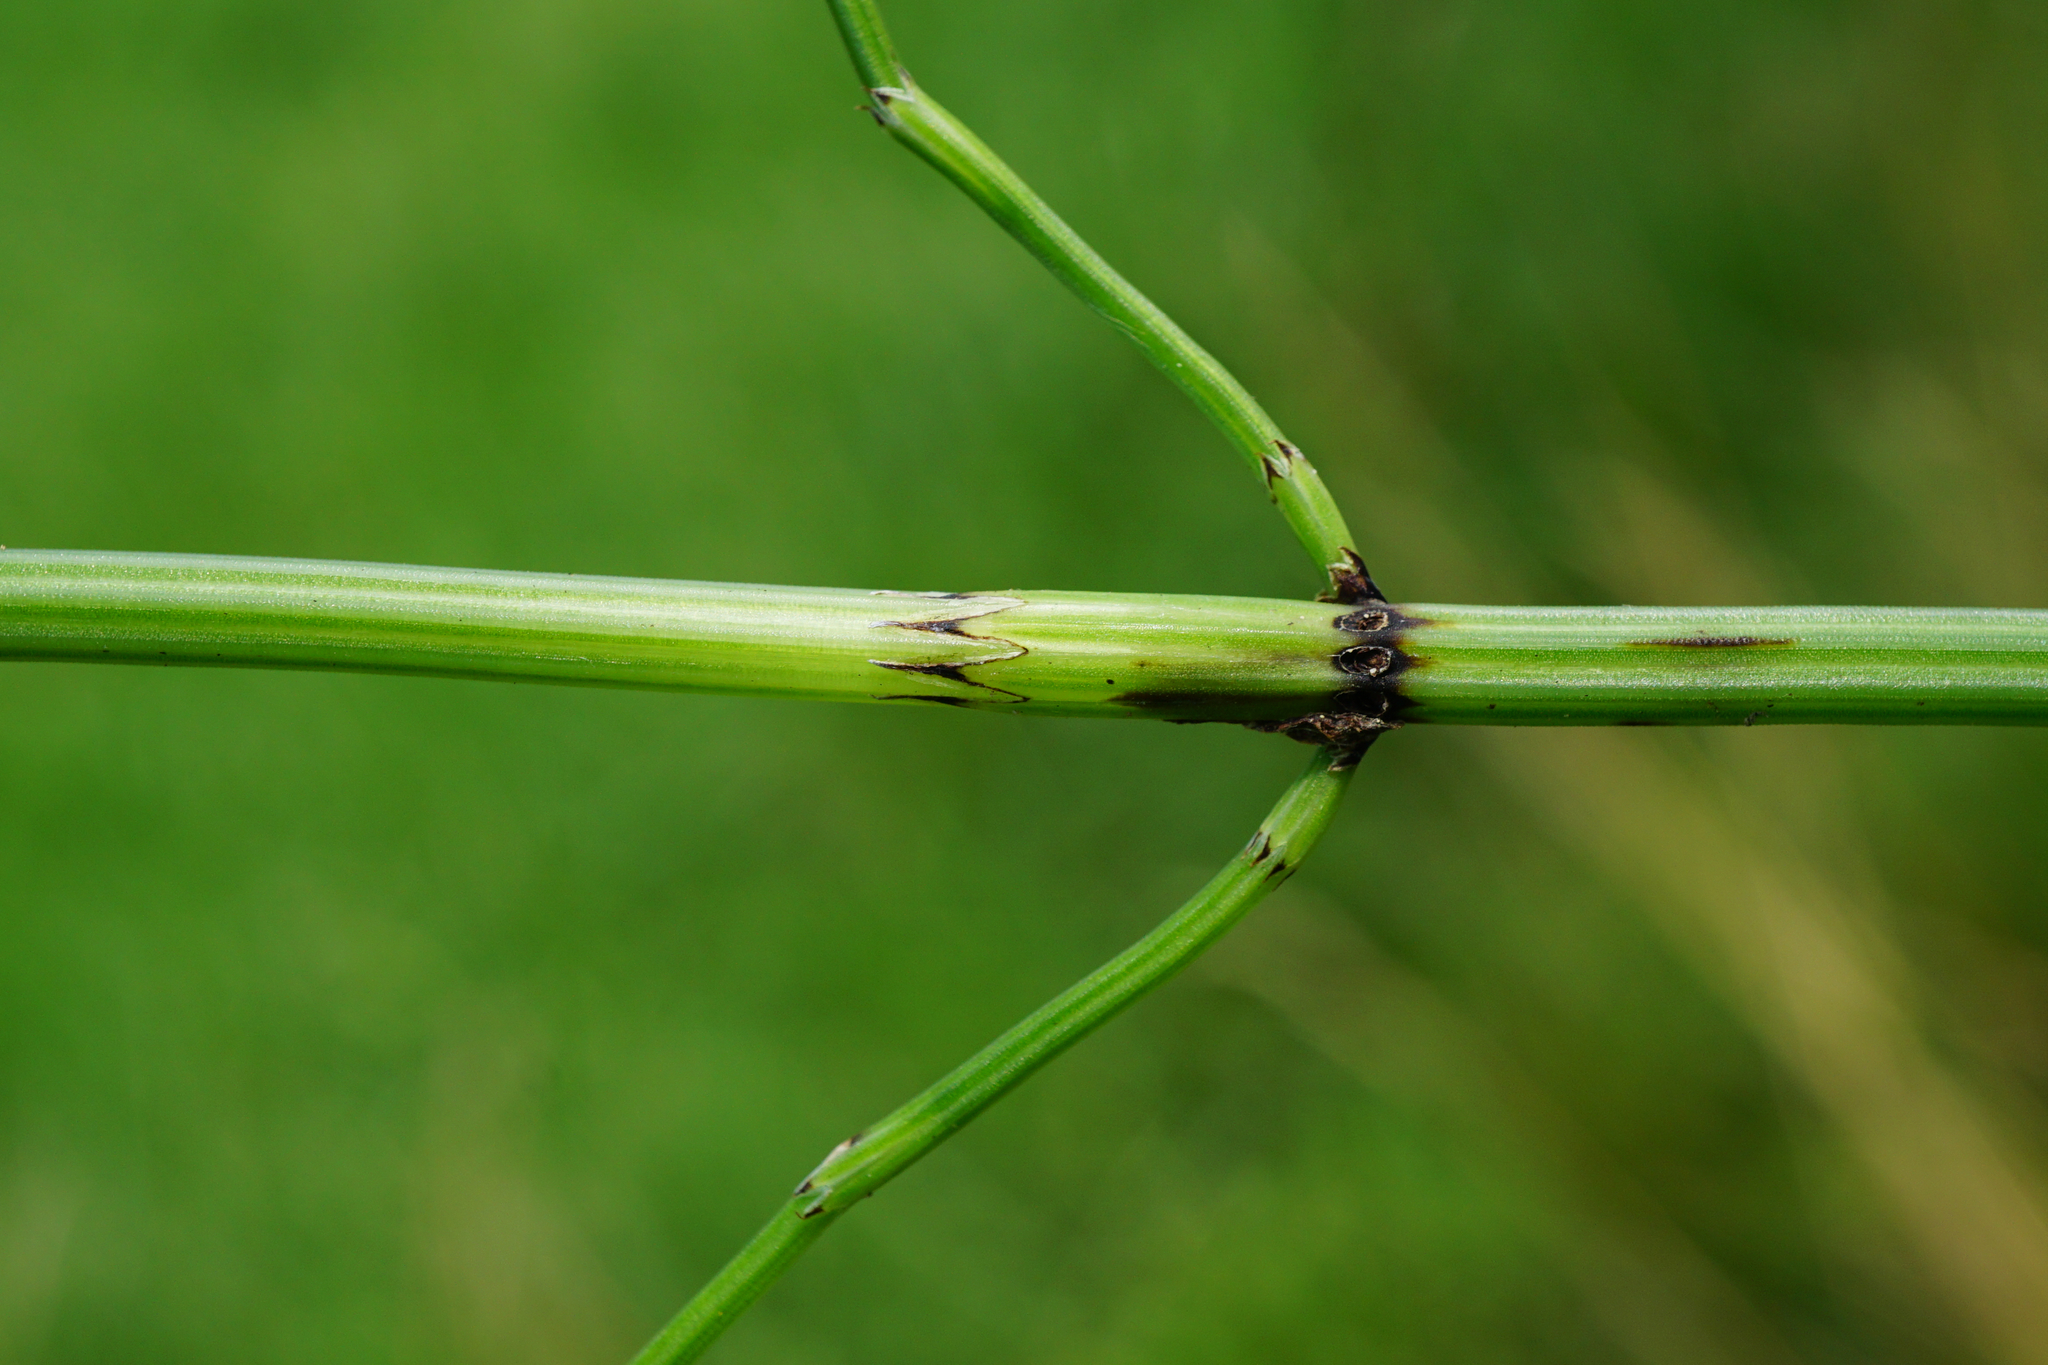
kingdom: Plantae
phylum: Tracheophyta
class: Polypodiopsida
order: Equisetales
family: Equisetaceae
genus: Equisetum
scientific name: Equisetum palustre
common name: Marsh horsetail
